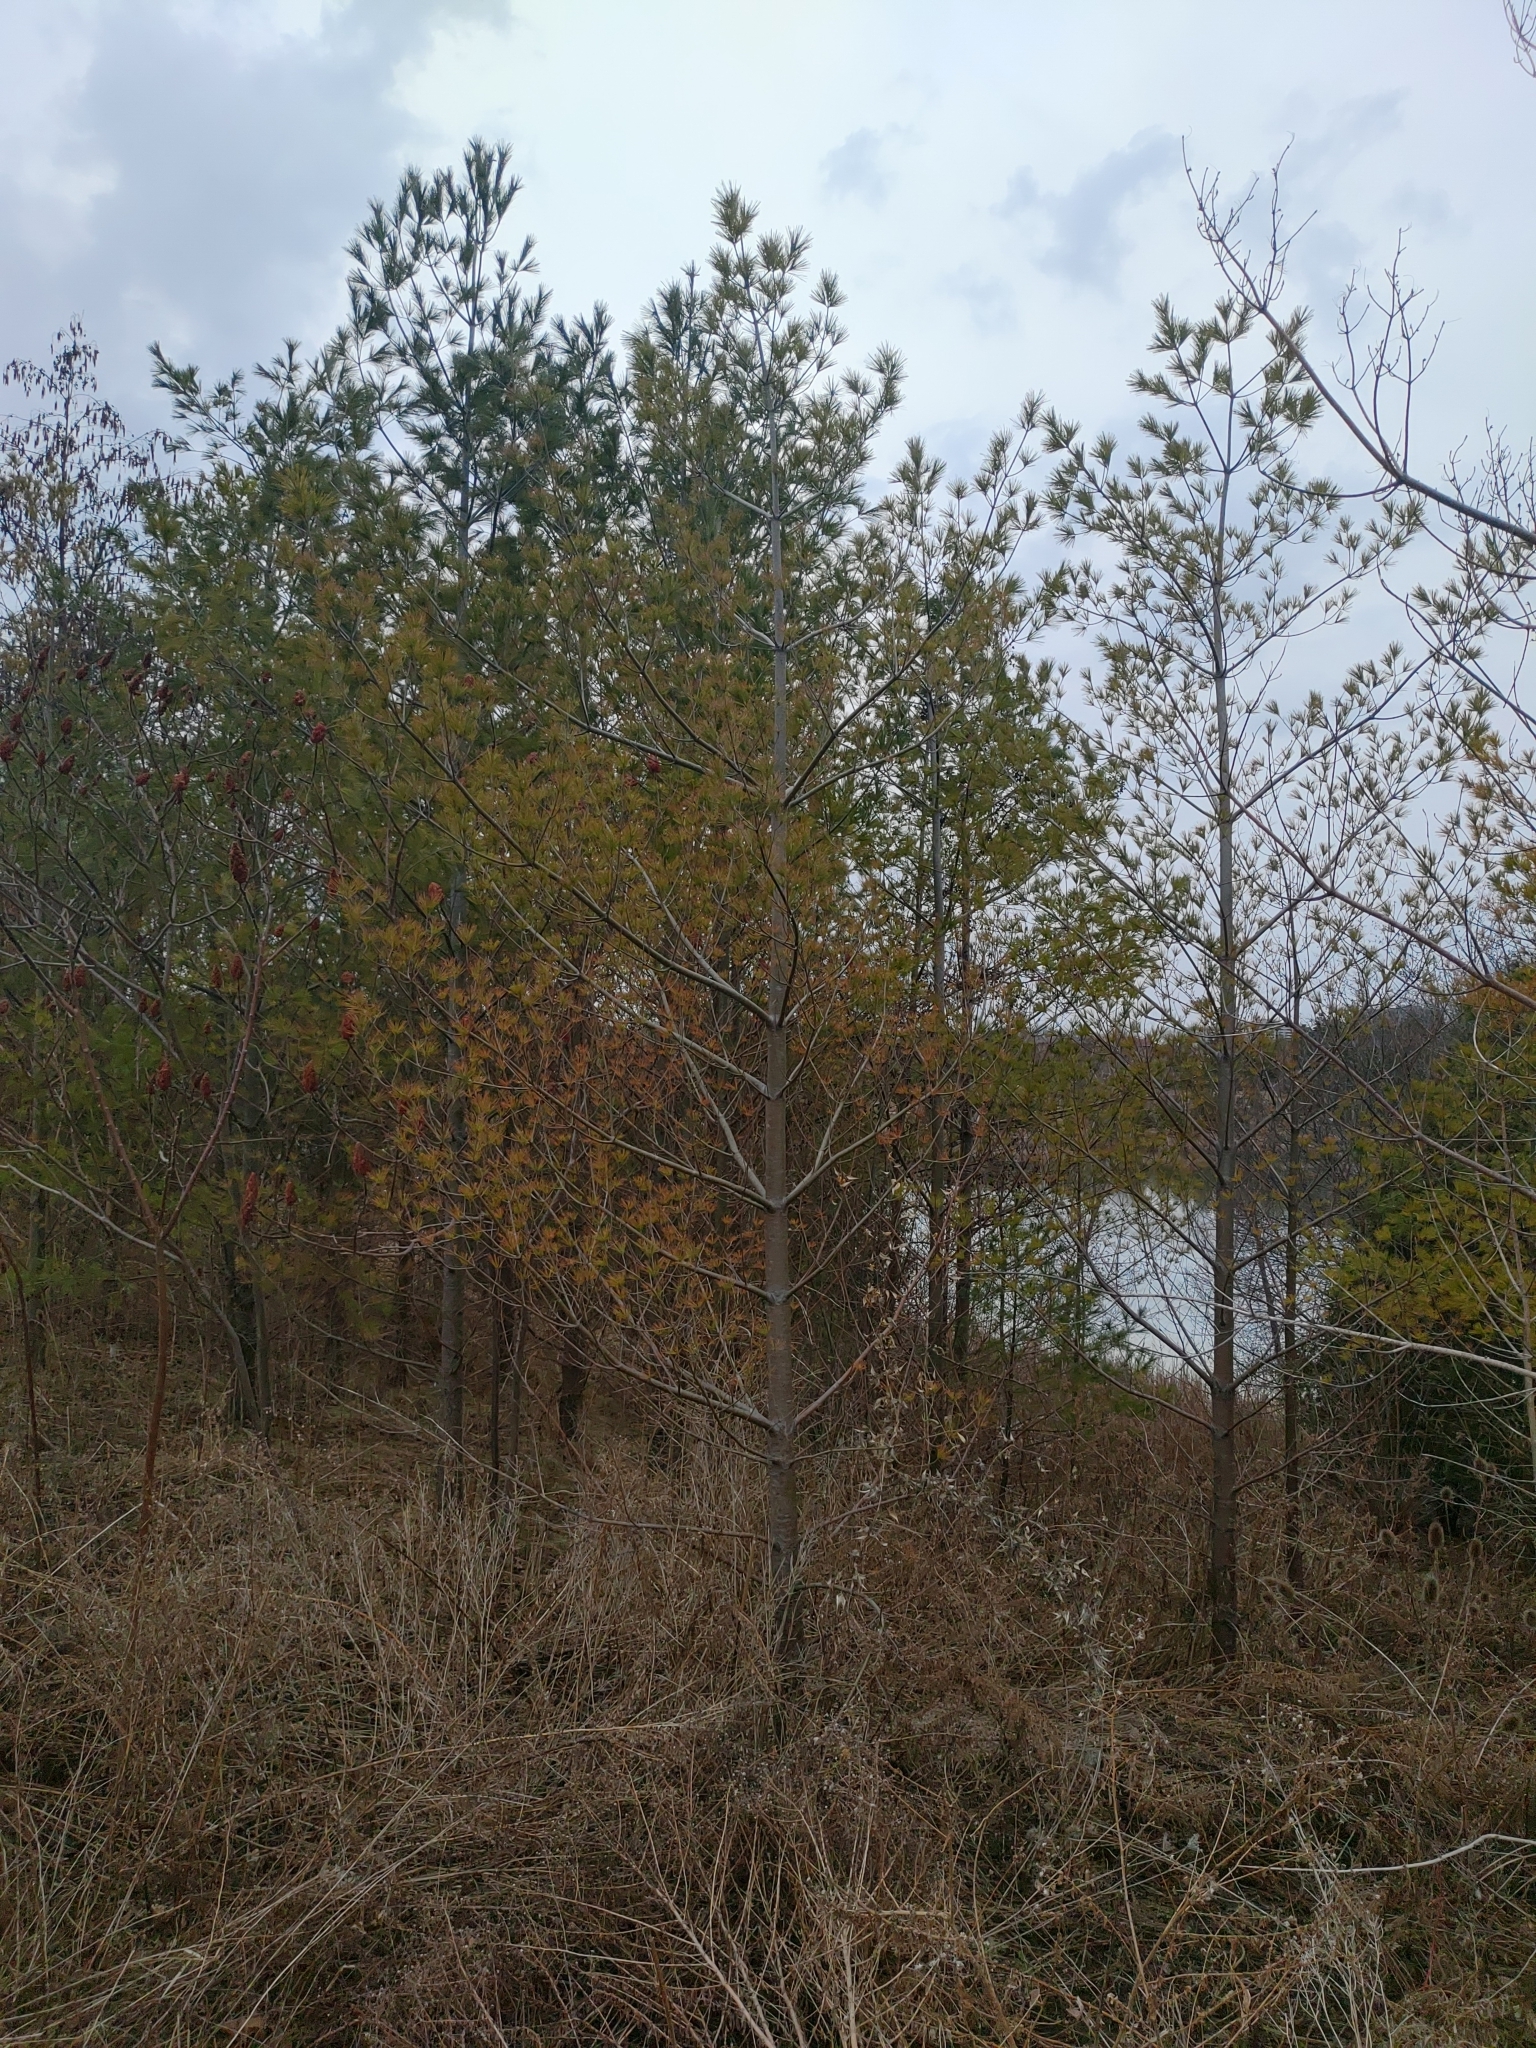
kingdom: Plantae
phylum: Tracheophyta
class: Pinopsida
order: Pinales
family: Pinaceae
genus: Pinus
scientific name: Pinus strobus
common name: Weymouth pine
